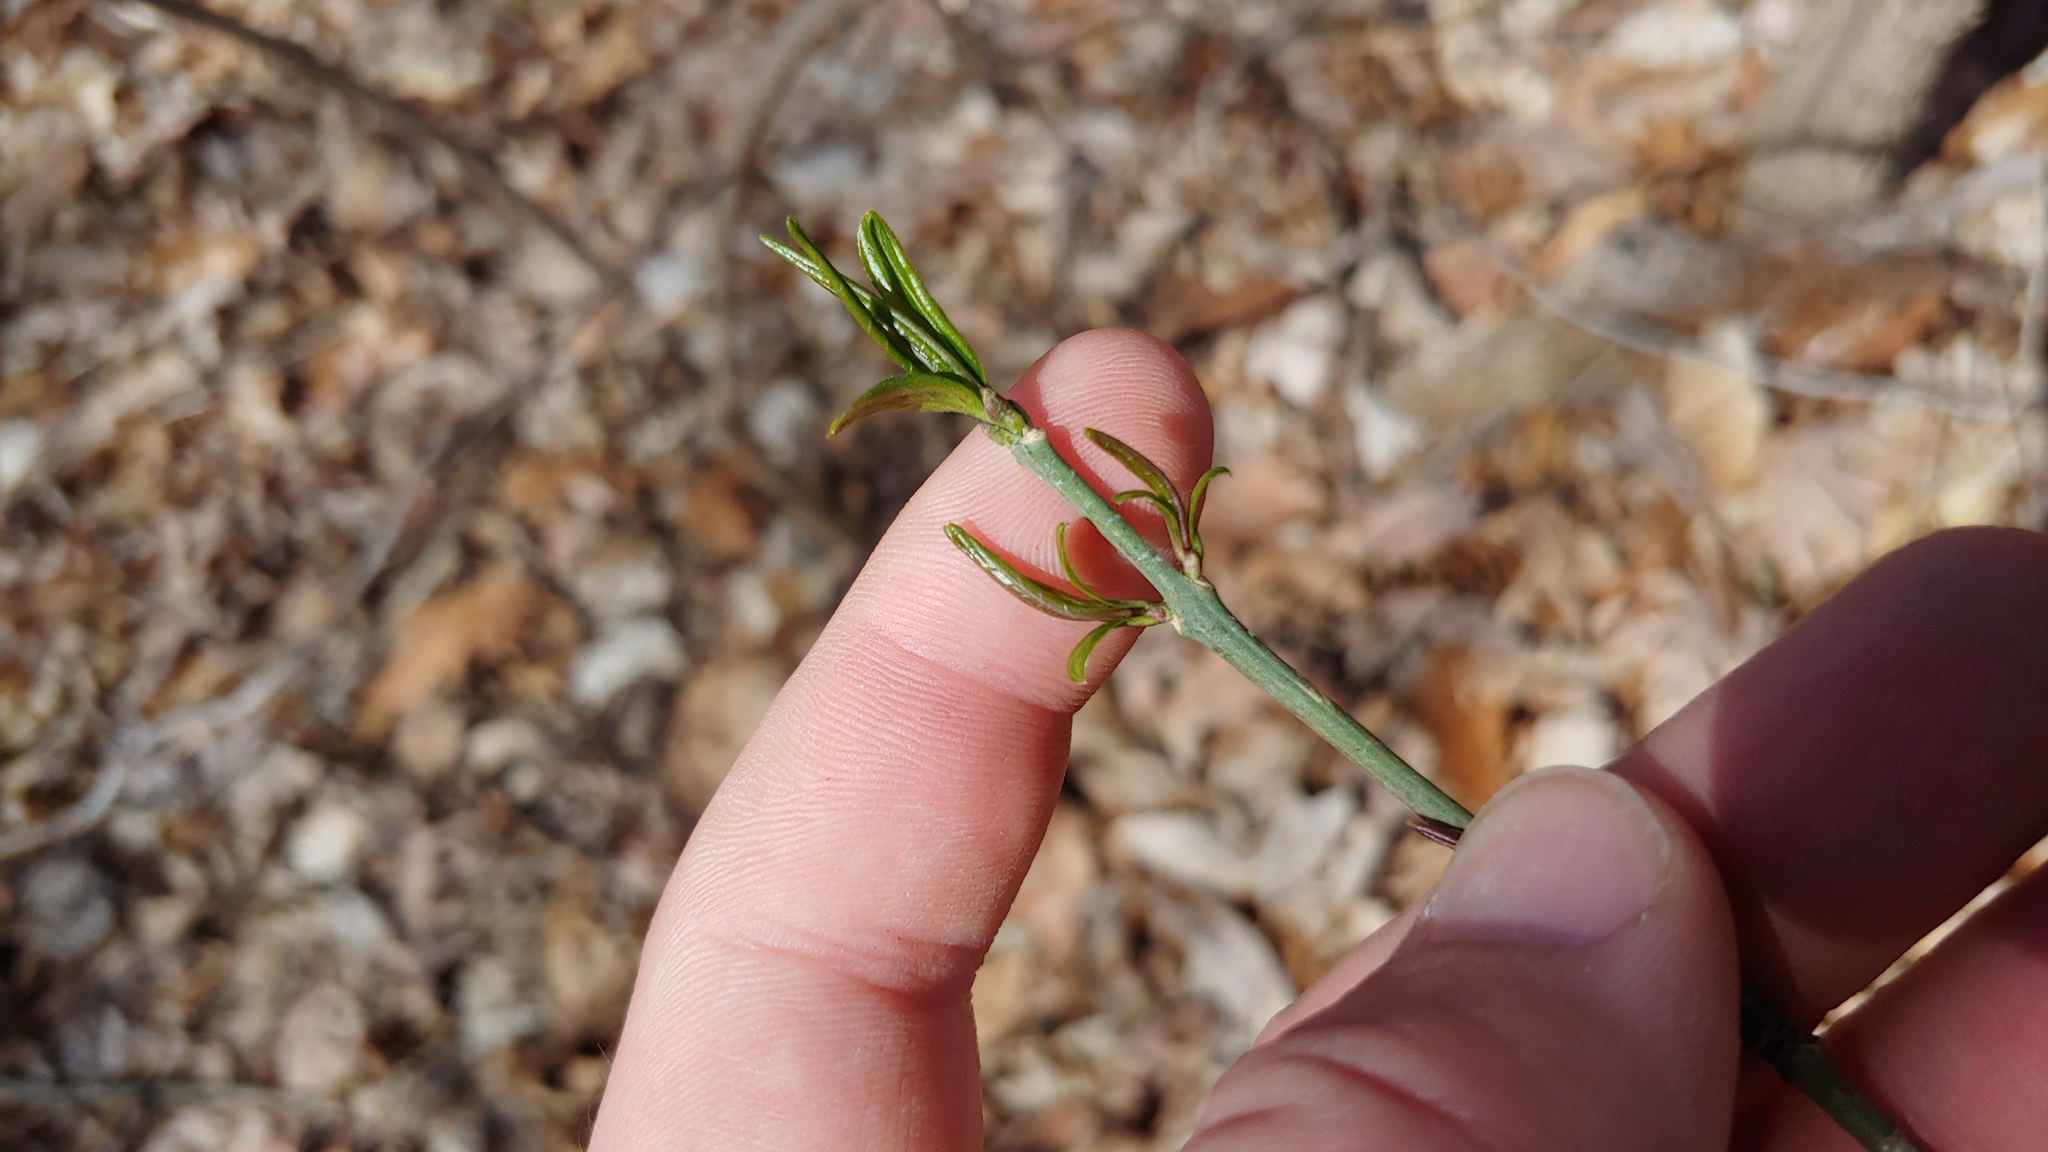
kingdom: Plantae
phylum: Tracheophyta
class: Magnoliopsida
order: Celastrales
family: Celastraceae
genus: Euonymus
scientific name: Euonymus atropurpureus
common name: Eastern wahoo
